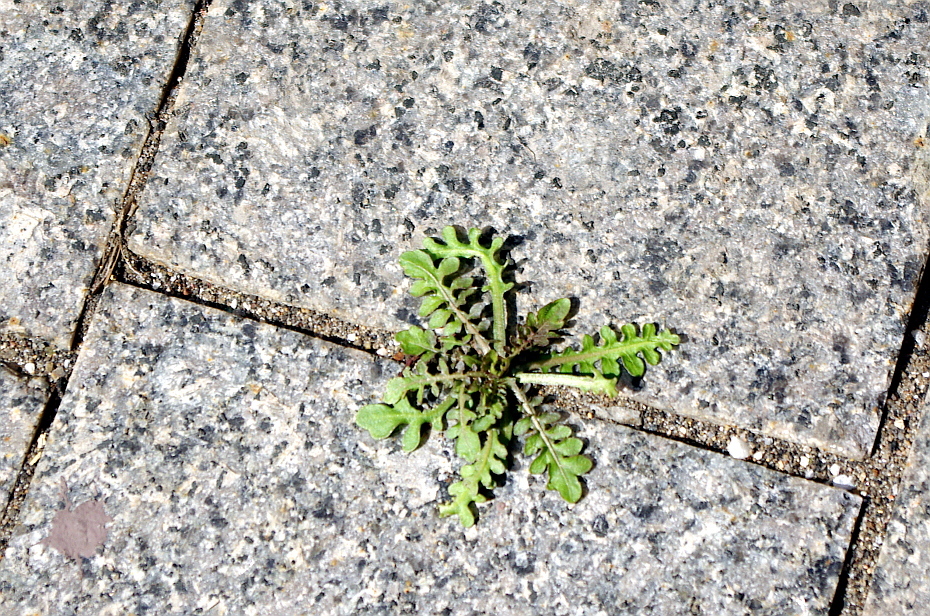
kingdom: Plantae
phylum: Tracheophyta
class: Magnoliopsida
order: Brassicales
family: Brassicaceae
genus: Rorippa
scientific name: Rorippa palustris
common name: Marsh yellow-cress
